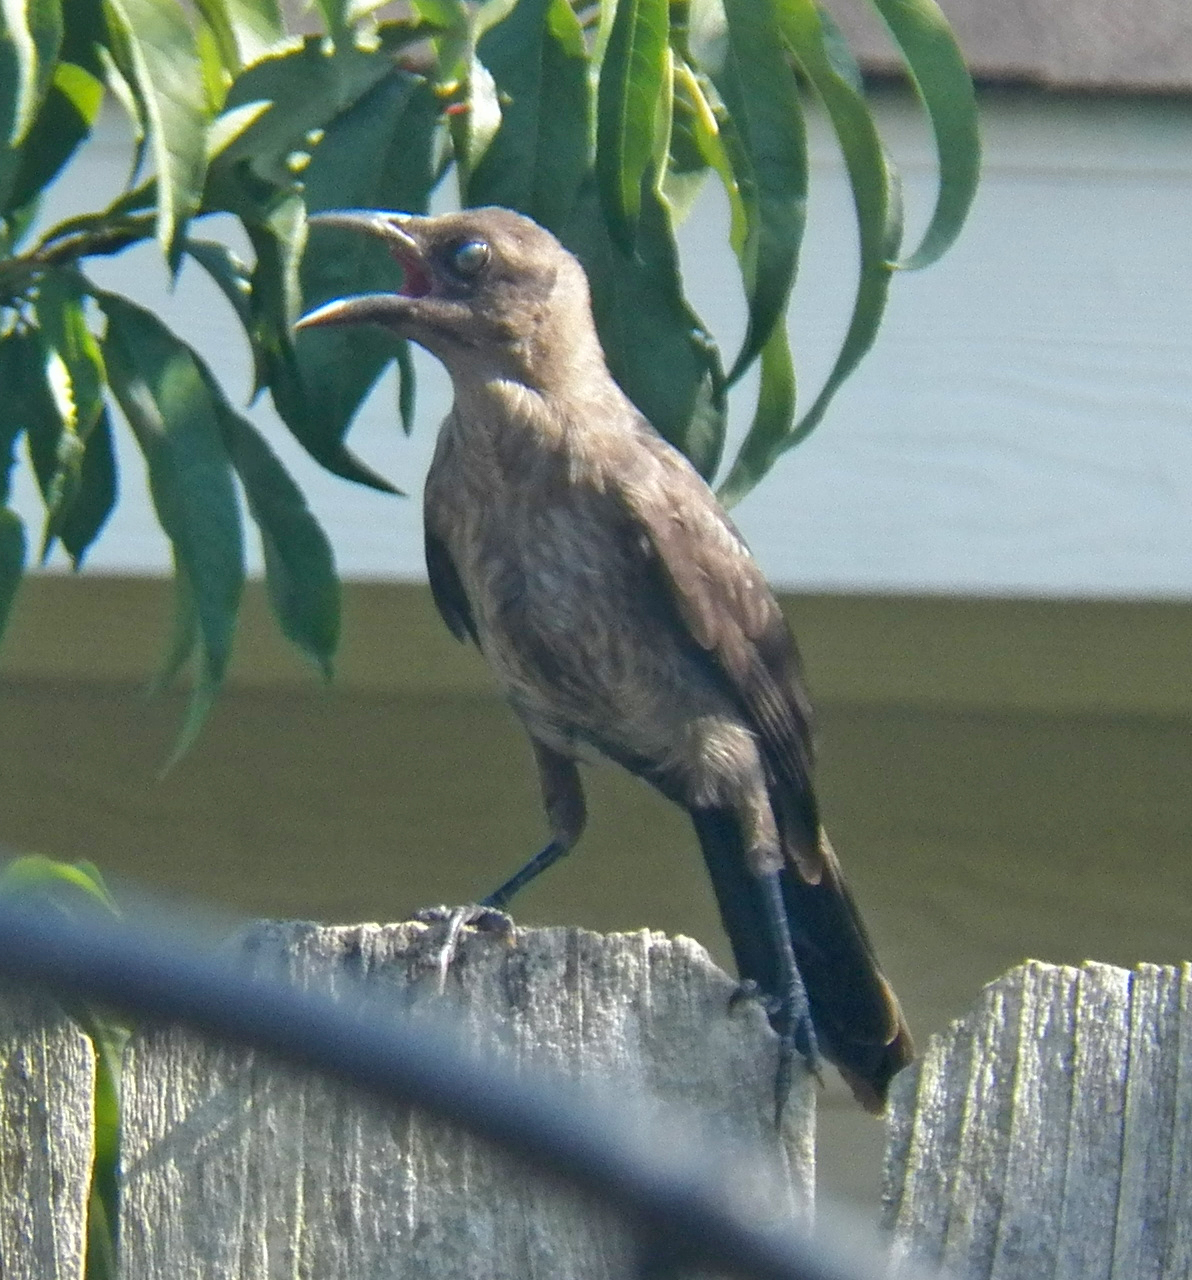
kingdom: Animalia
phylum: Chordata
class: Aves
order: Passeriformes
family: Icteridae
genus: Quiscalus
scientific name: Quiscalus mexicanus
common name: Great-tailed grackle
